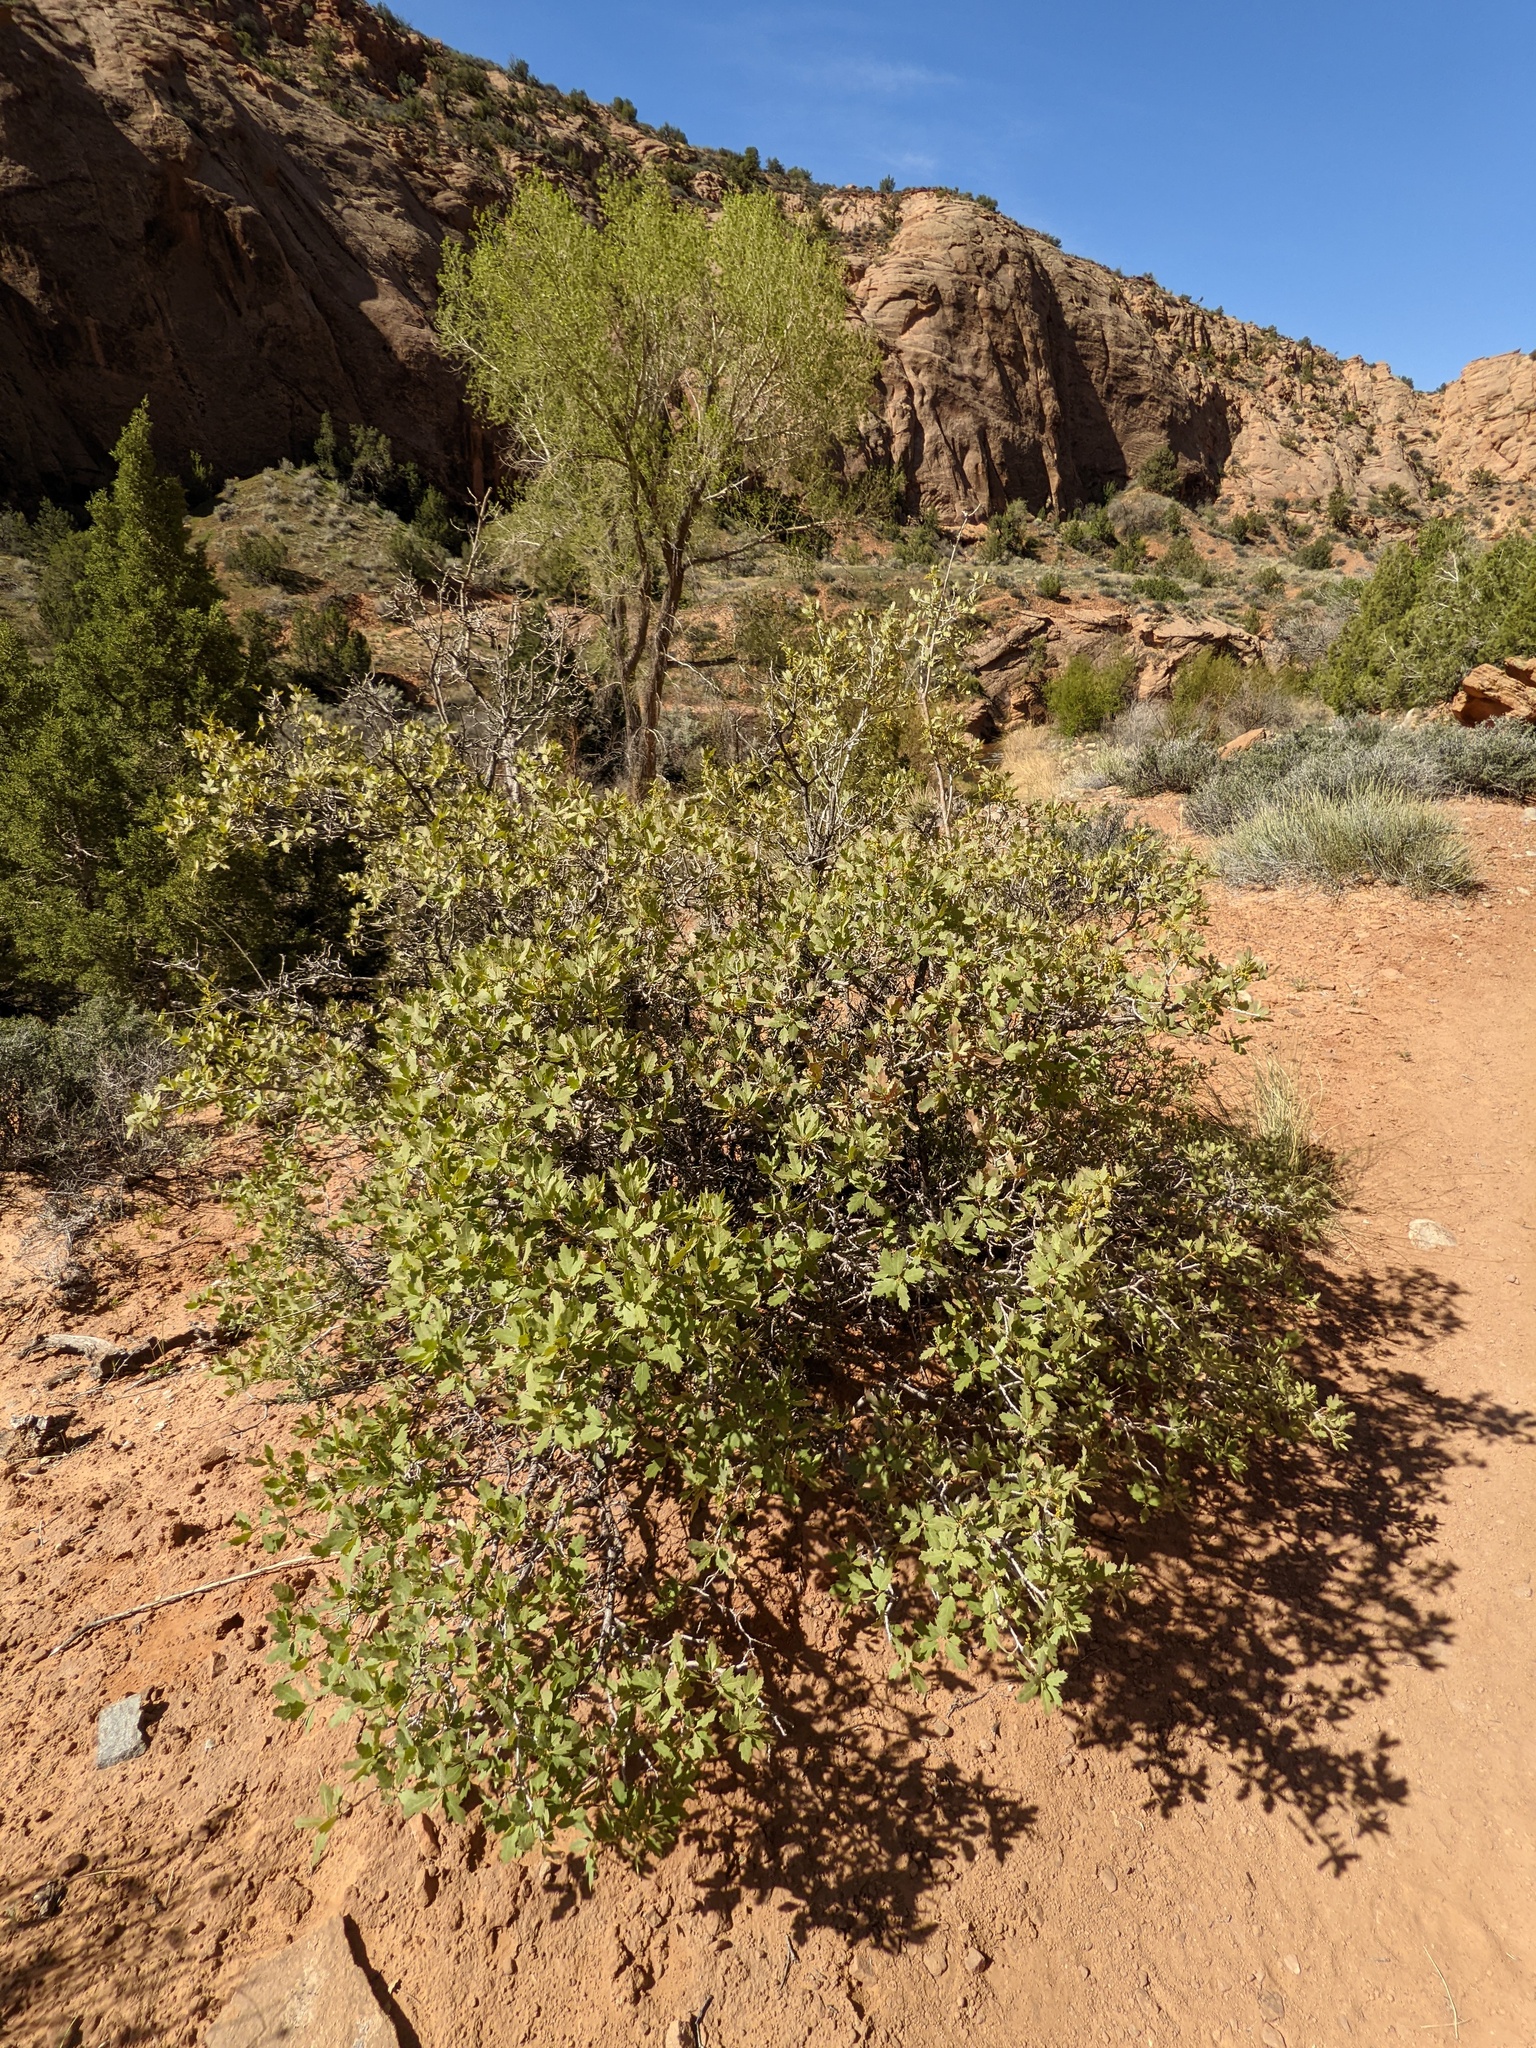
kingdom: Plantae
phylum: Tracheophyta
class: Magnoliopsida
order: Fagales
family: Fagaceae
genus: Quercus
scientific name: Quercus welshii
